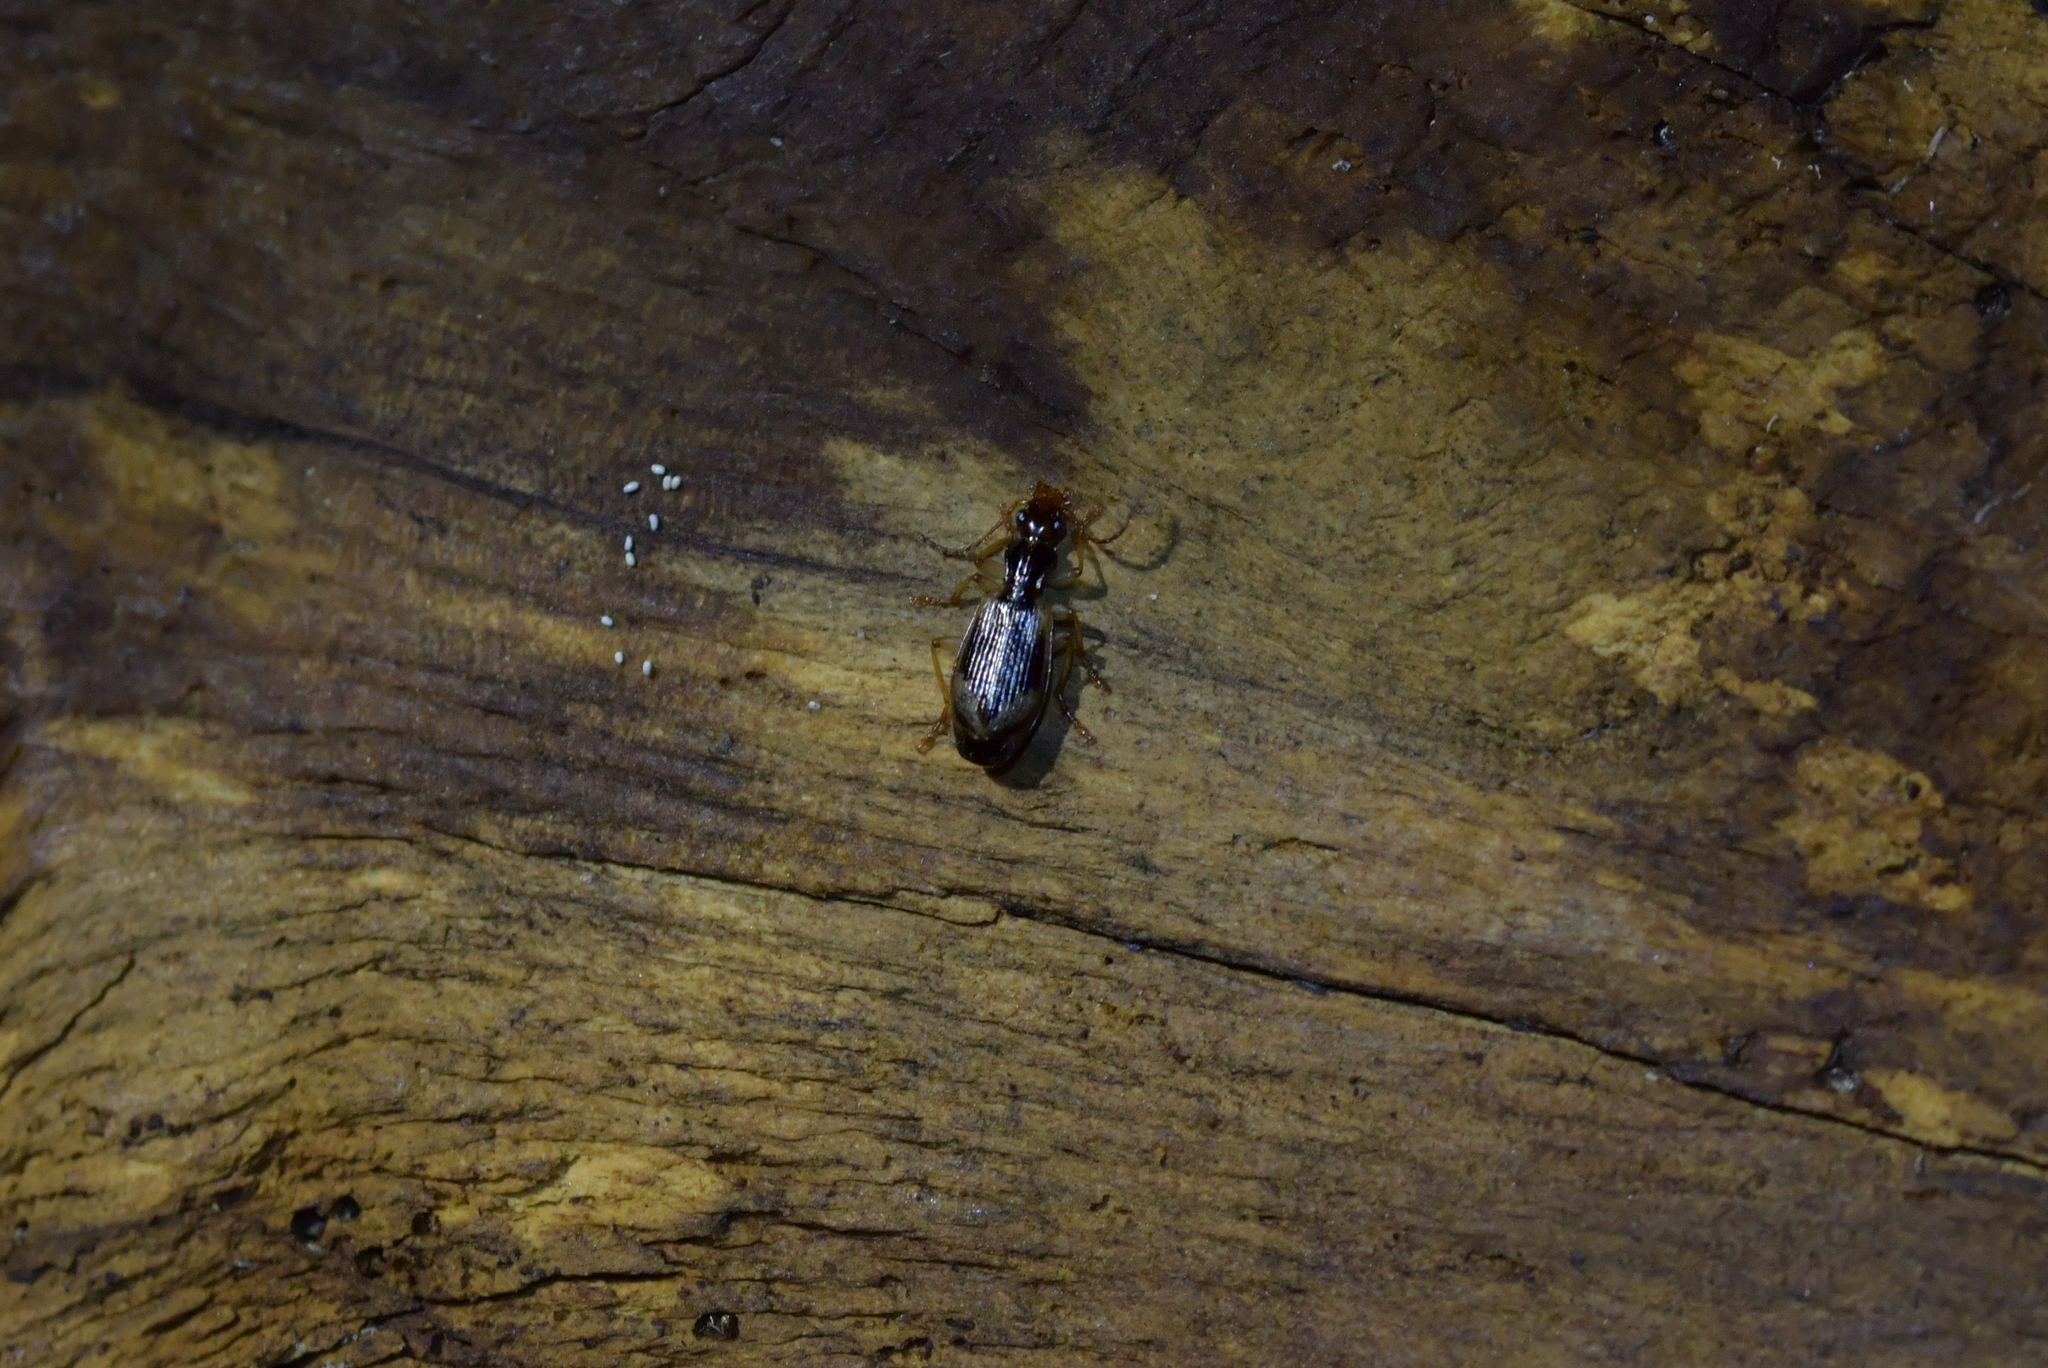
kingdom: Animalia
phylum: Arthropoda
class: Insecta
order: Coleoptera
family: Carabidae
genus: Demetrida
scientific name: Demetrida nasuta
